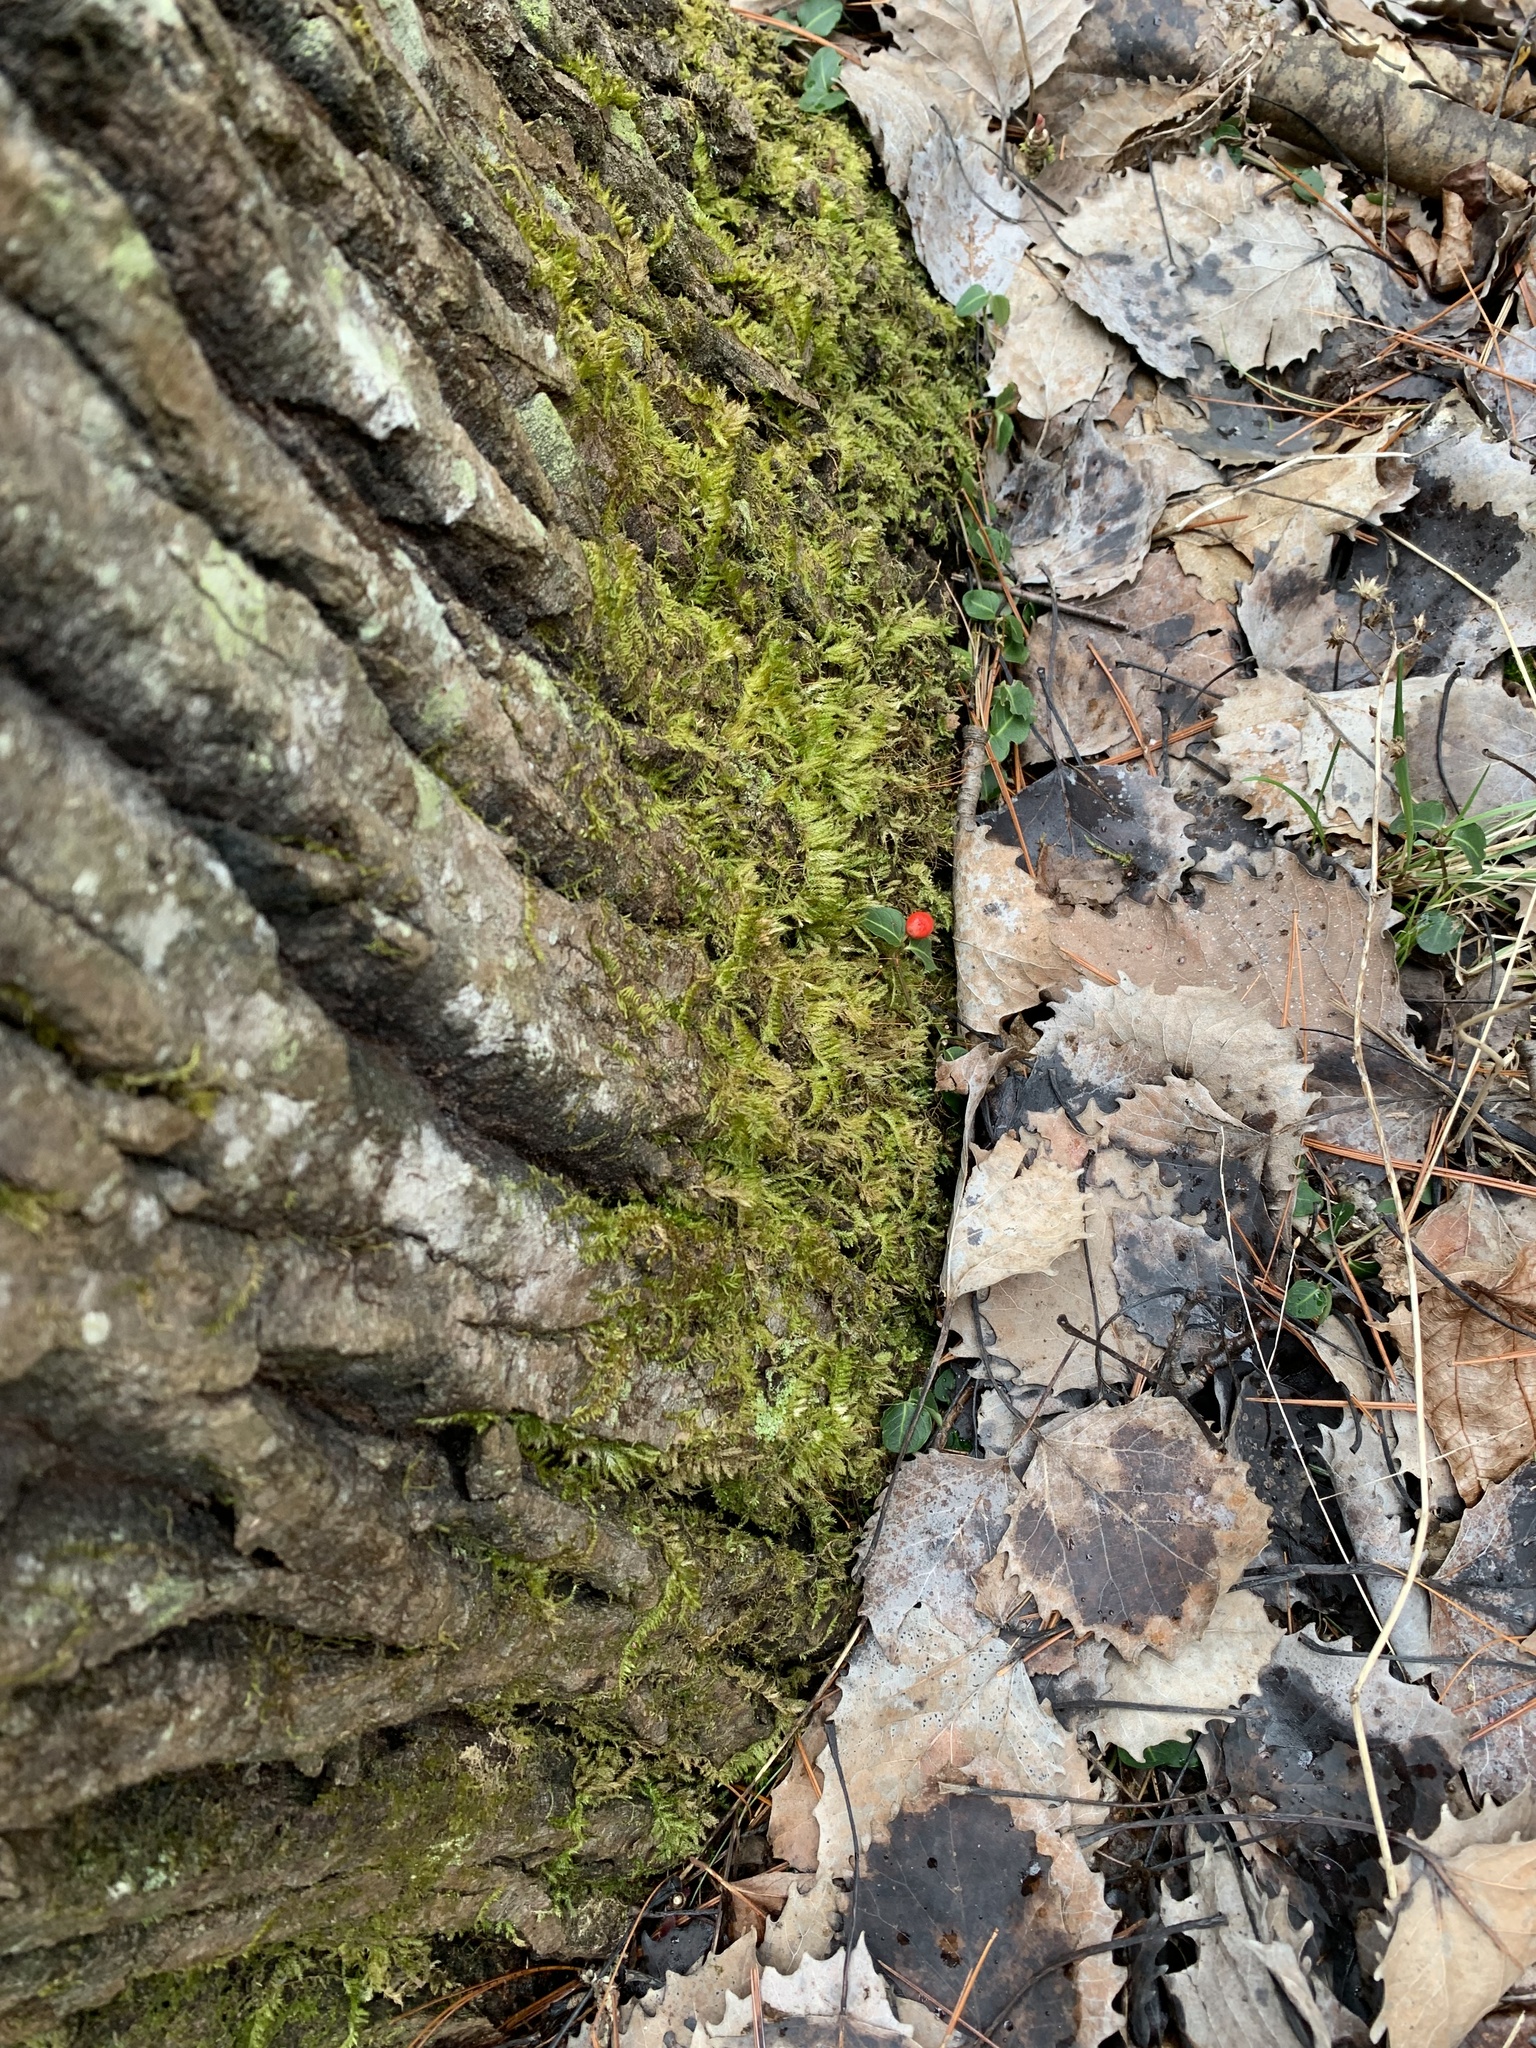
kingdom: Plantae
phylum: Tracheophyta
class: Magnoliopsida
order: Gentianales
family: Rubiaceae
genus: Mitchella
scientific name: Mitchella repens
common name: Partridge-berry
